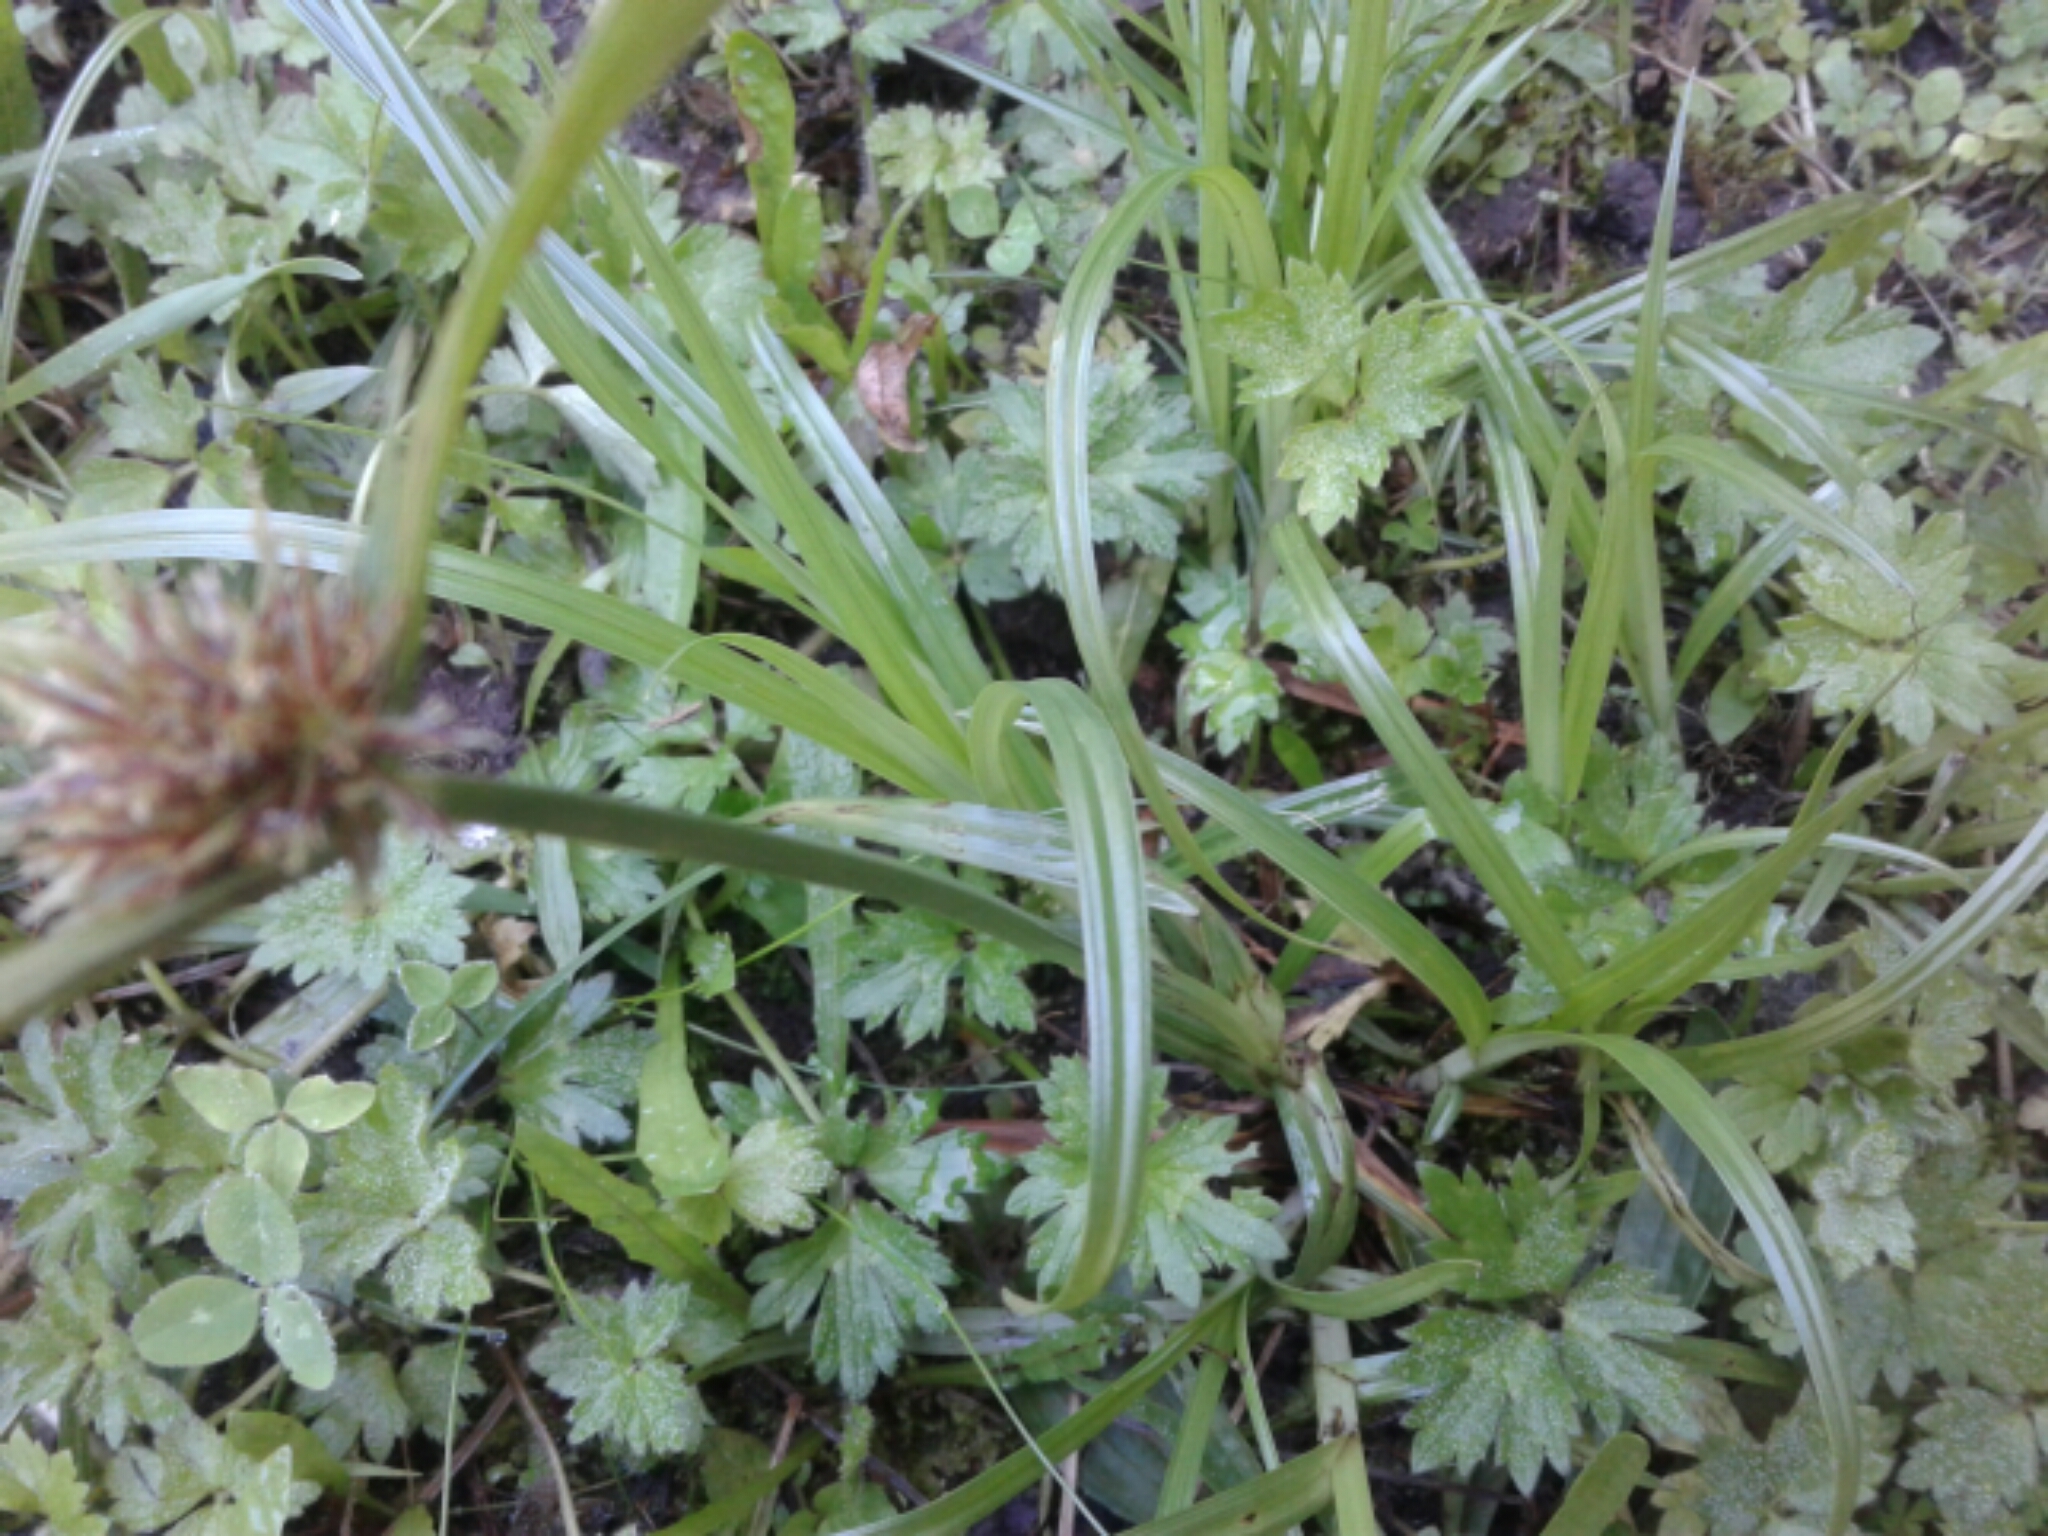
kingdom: Plantae
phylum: Tracheophyta
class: Liliopsida
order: Poales
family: Cyperaceae
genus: Cyperus
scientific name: Cyperus
